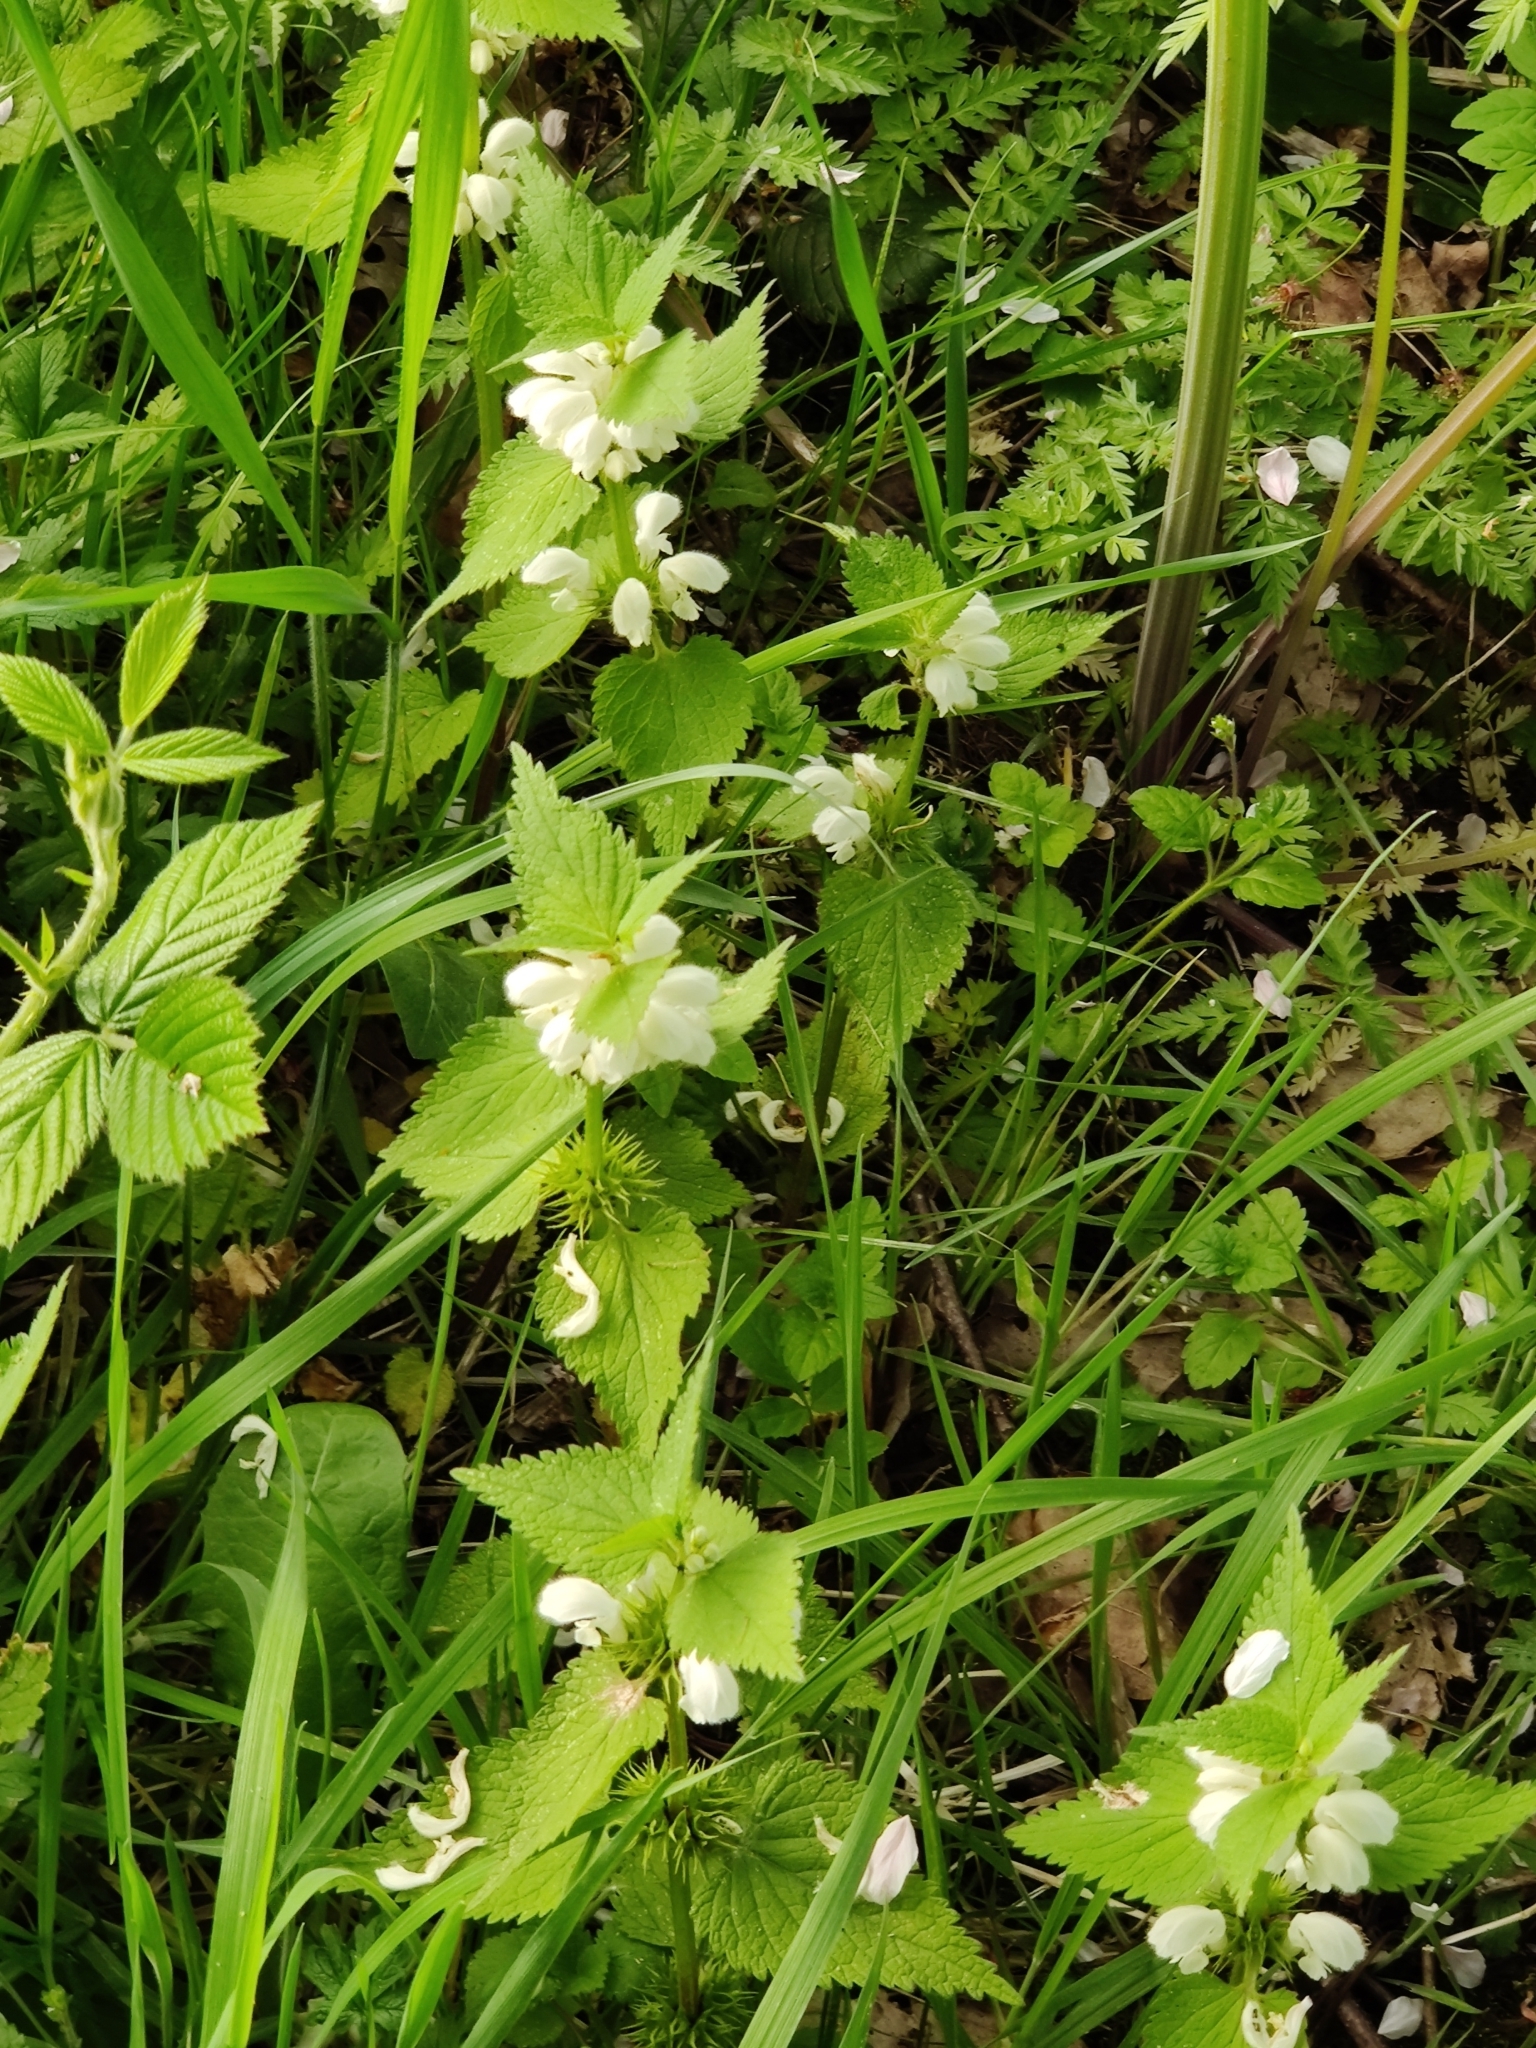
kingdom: Plantae
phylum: Tracheophyta
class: Magnoliopsida
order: Lamiales
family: Lamiaceae
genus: Lamium
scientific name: Lamium album
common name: White dead-nettle
